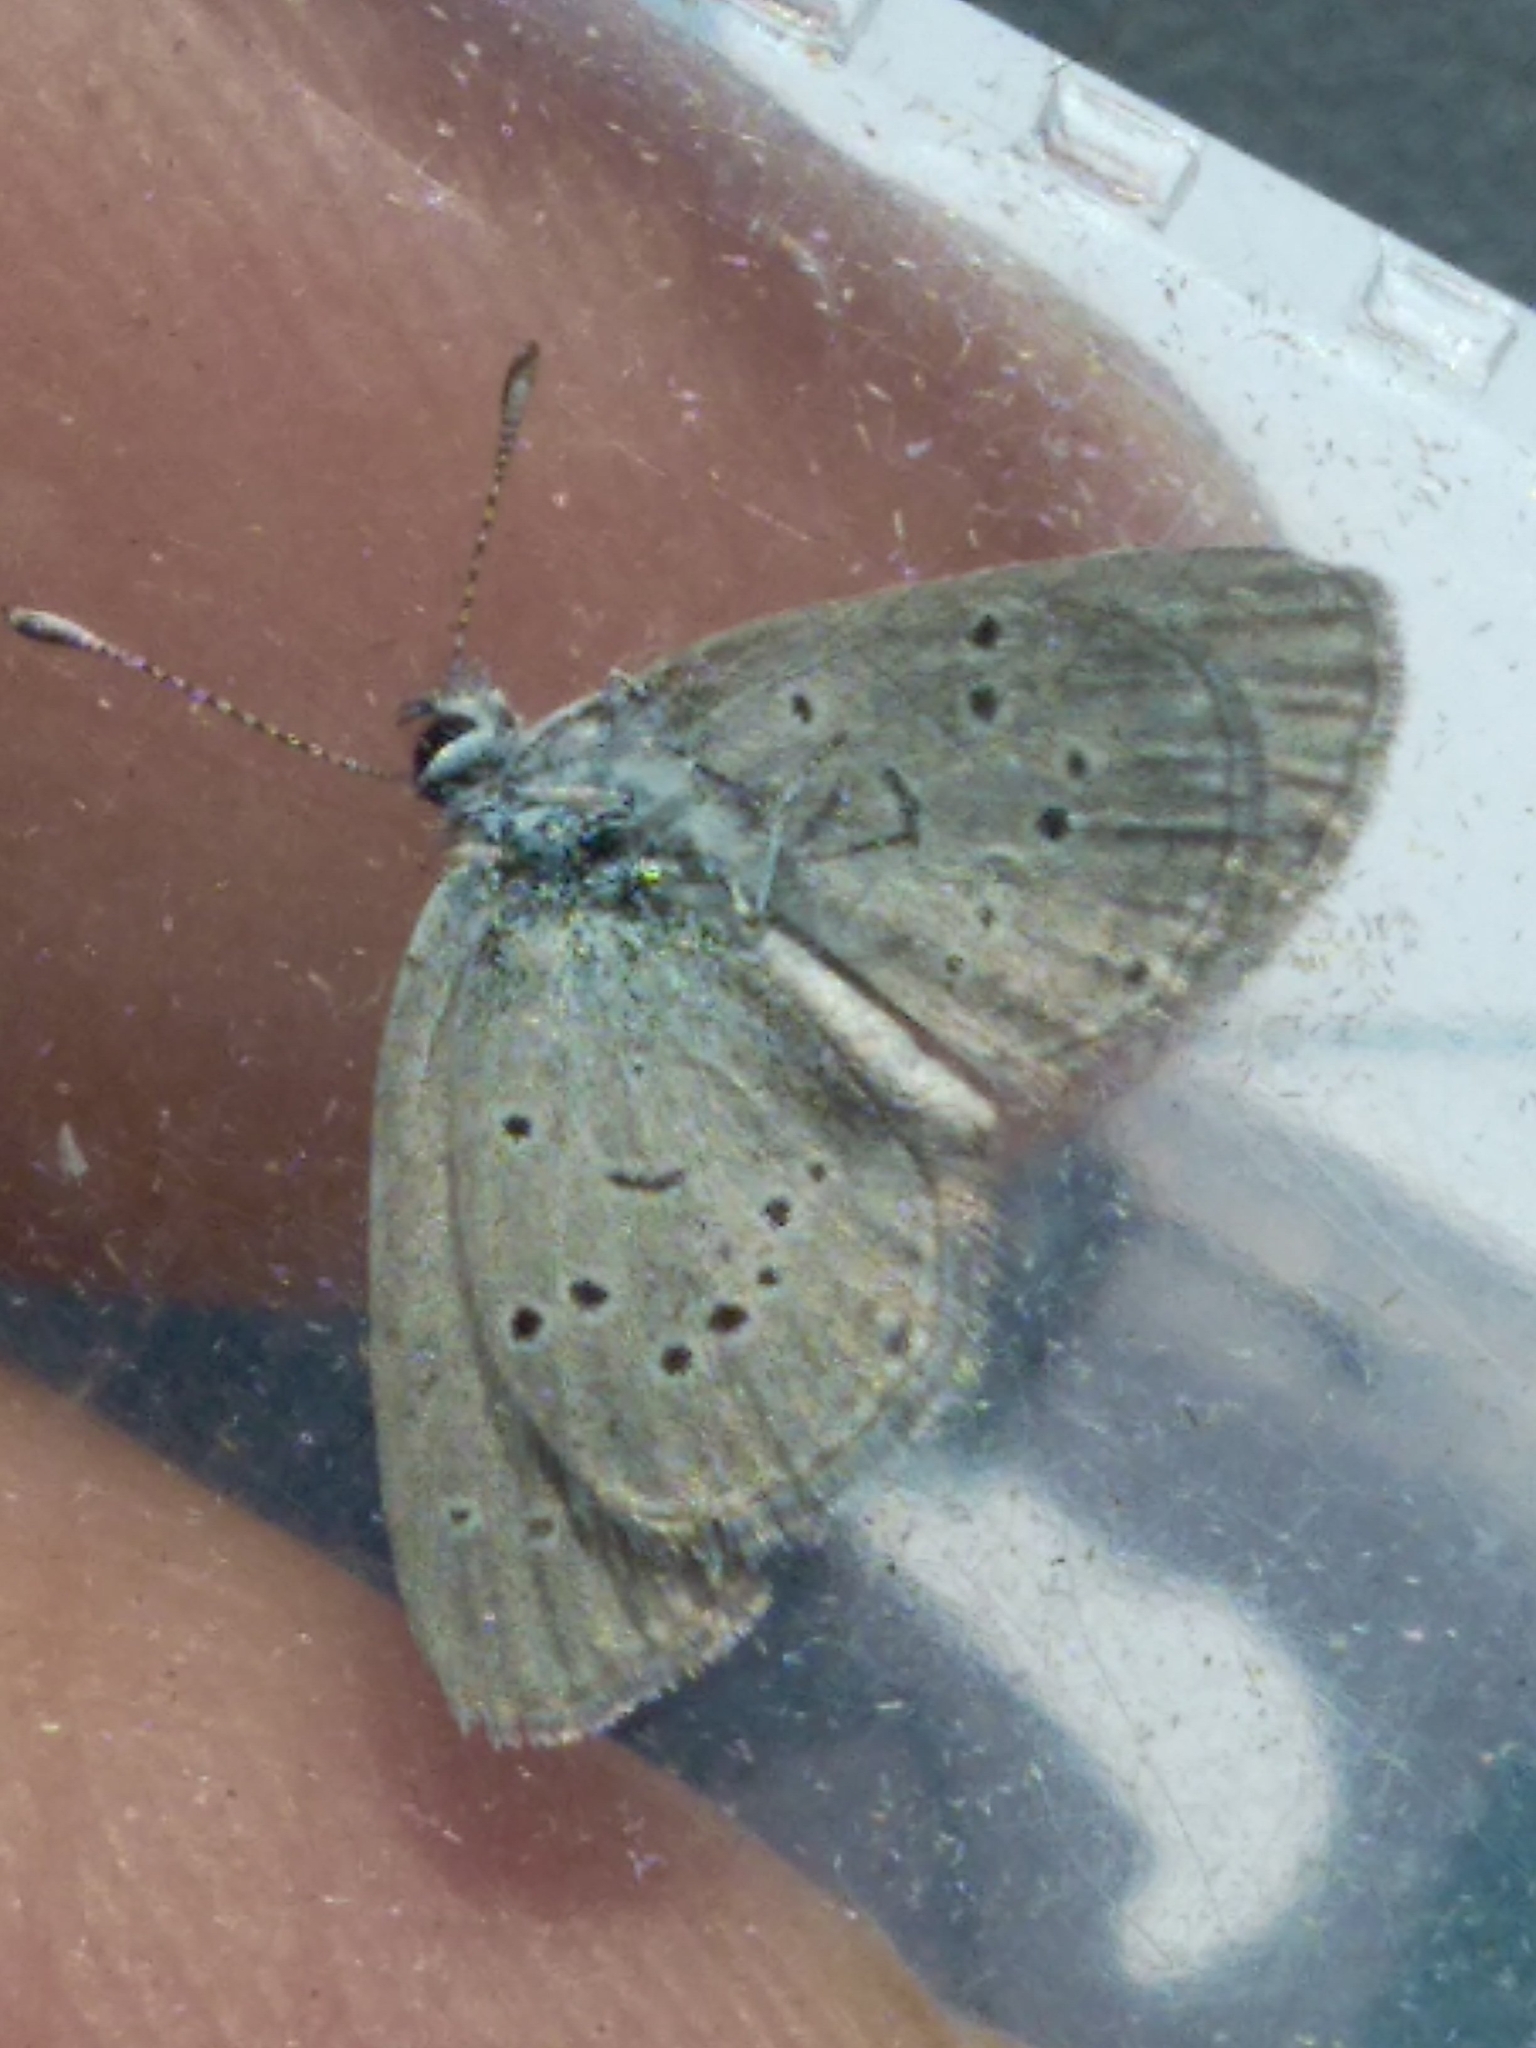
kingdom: Animalia
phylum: Arthropoda
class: Insecta
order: Lepidoptera
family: Lycaenidae
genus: Cupido
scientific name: Cupido minimus
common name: Small blue
